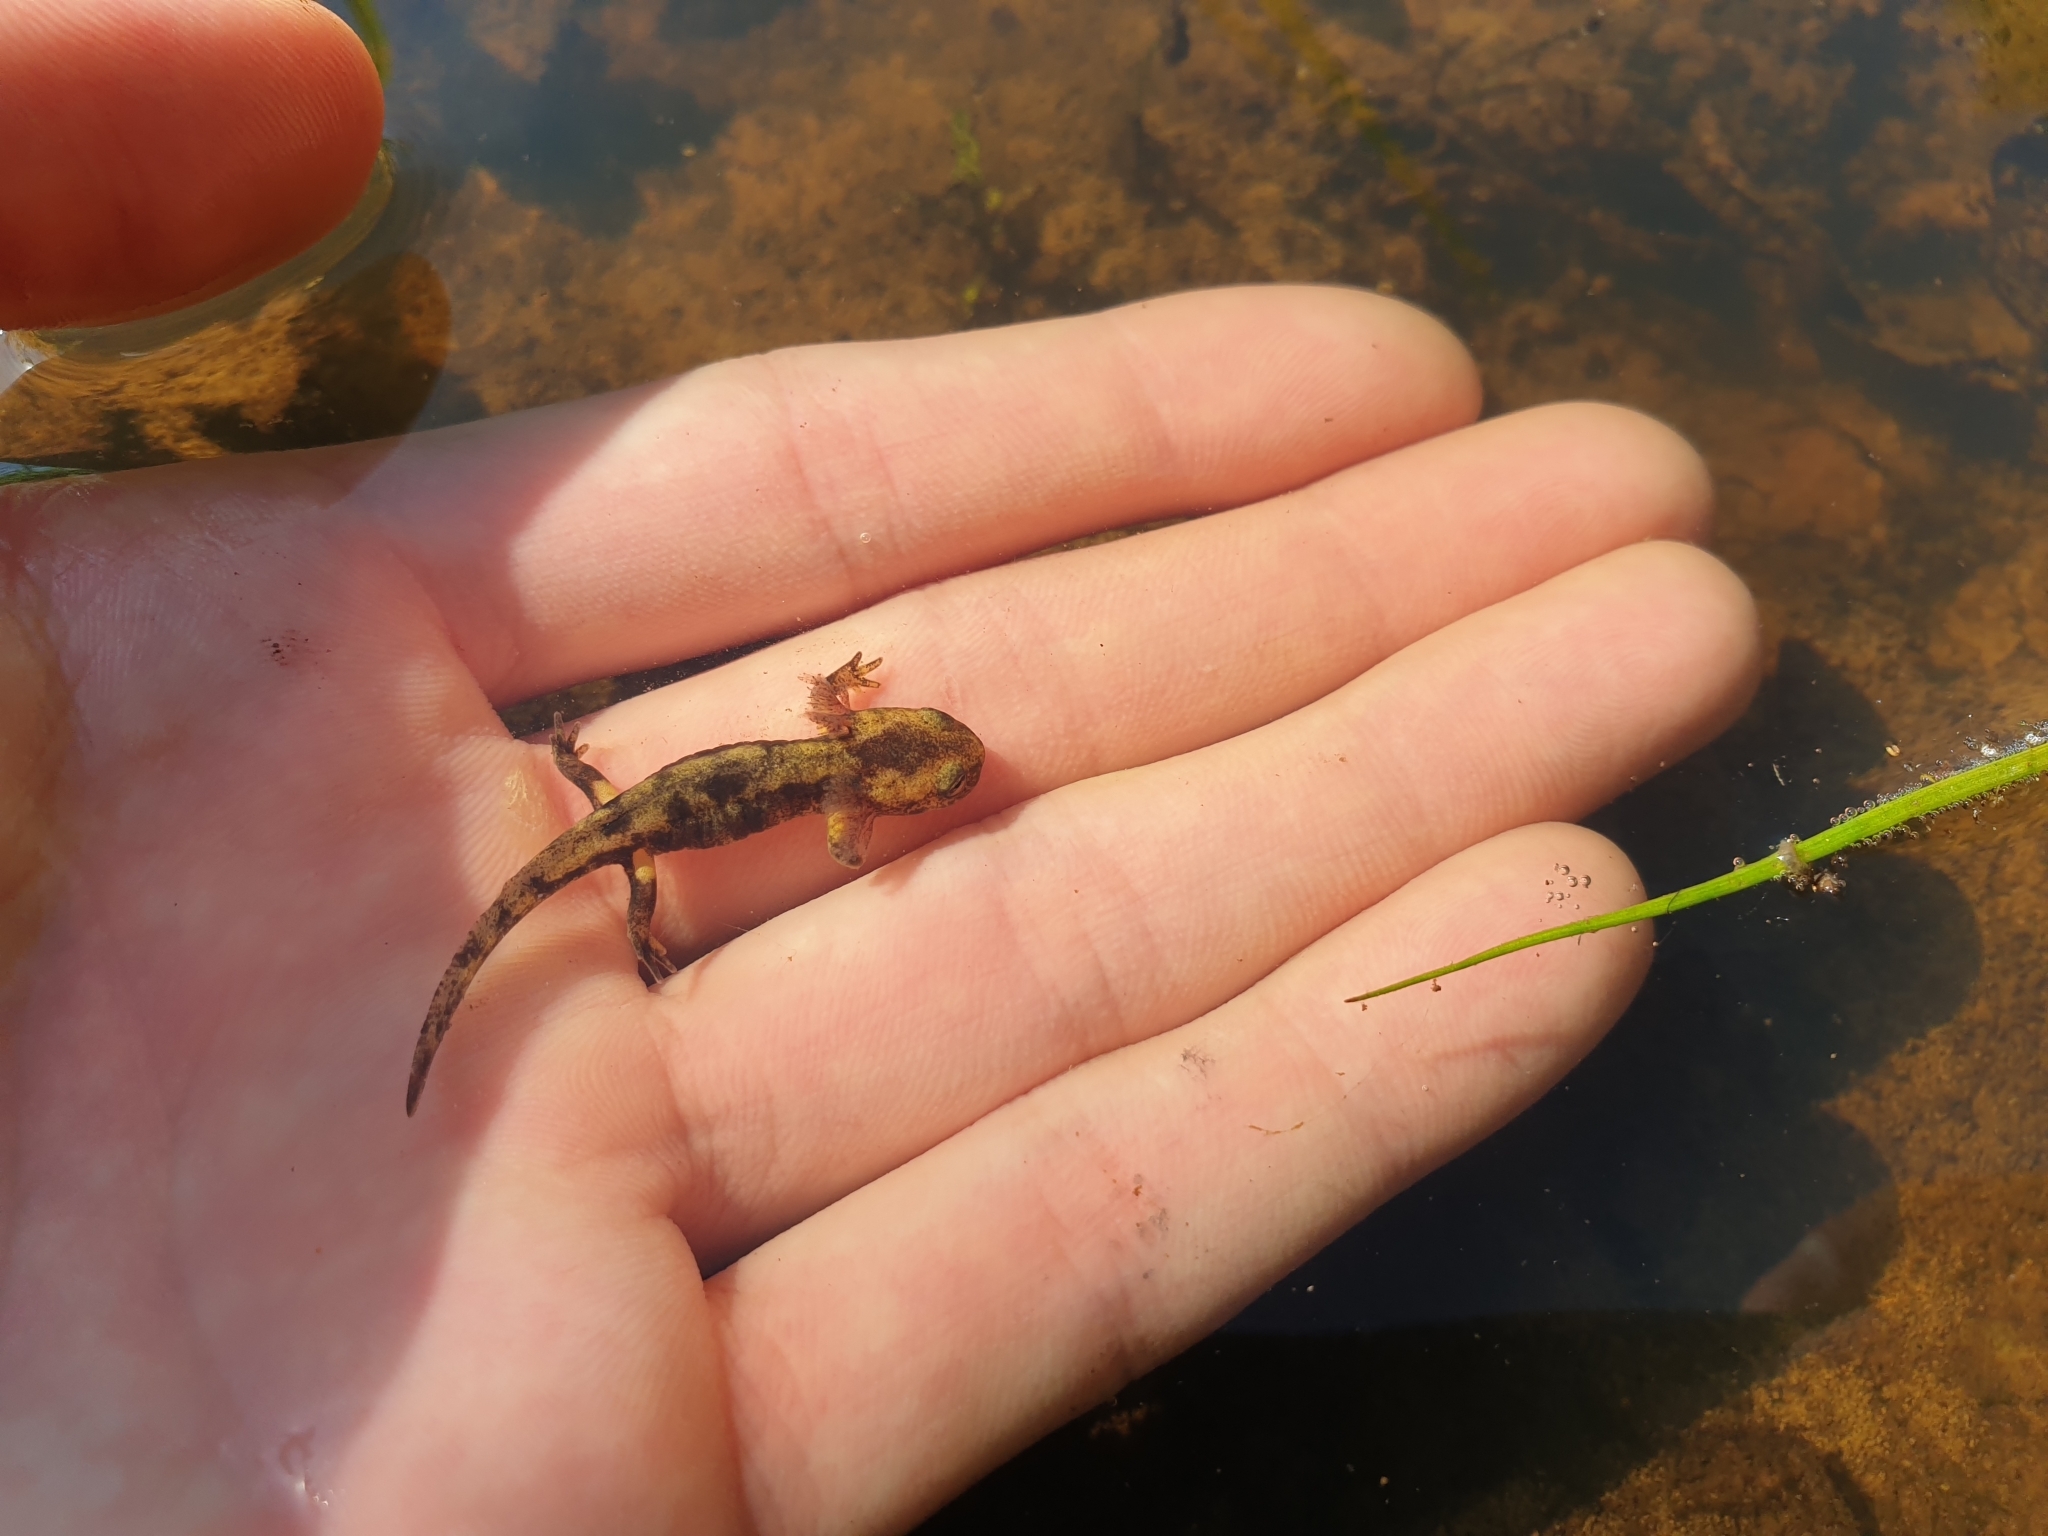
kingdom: Animalia
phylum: Chordata
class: Amphibia
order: Caudata
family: Salamandridae
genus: Salamandra
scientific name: Salamandra salamandra
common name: Fire salamander
